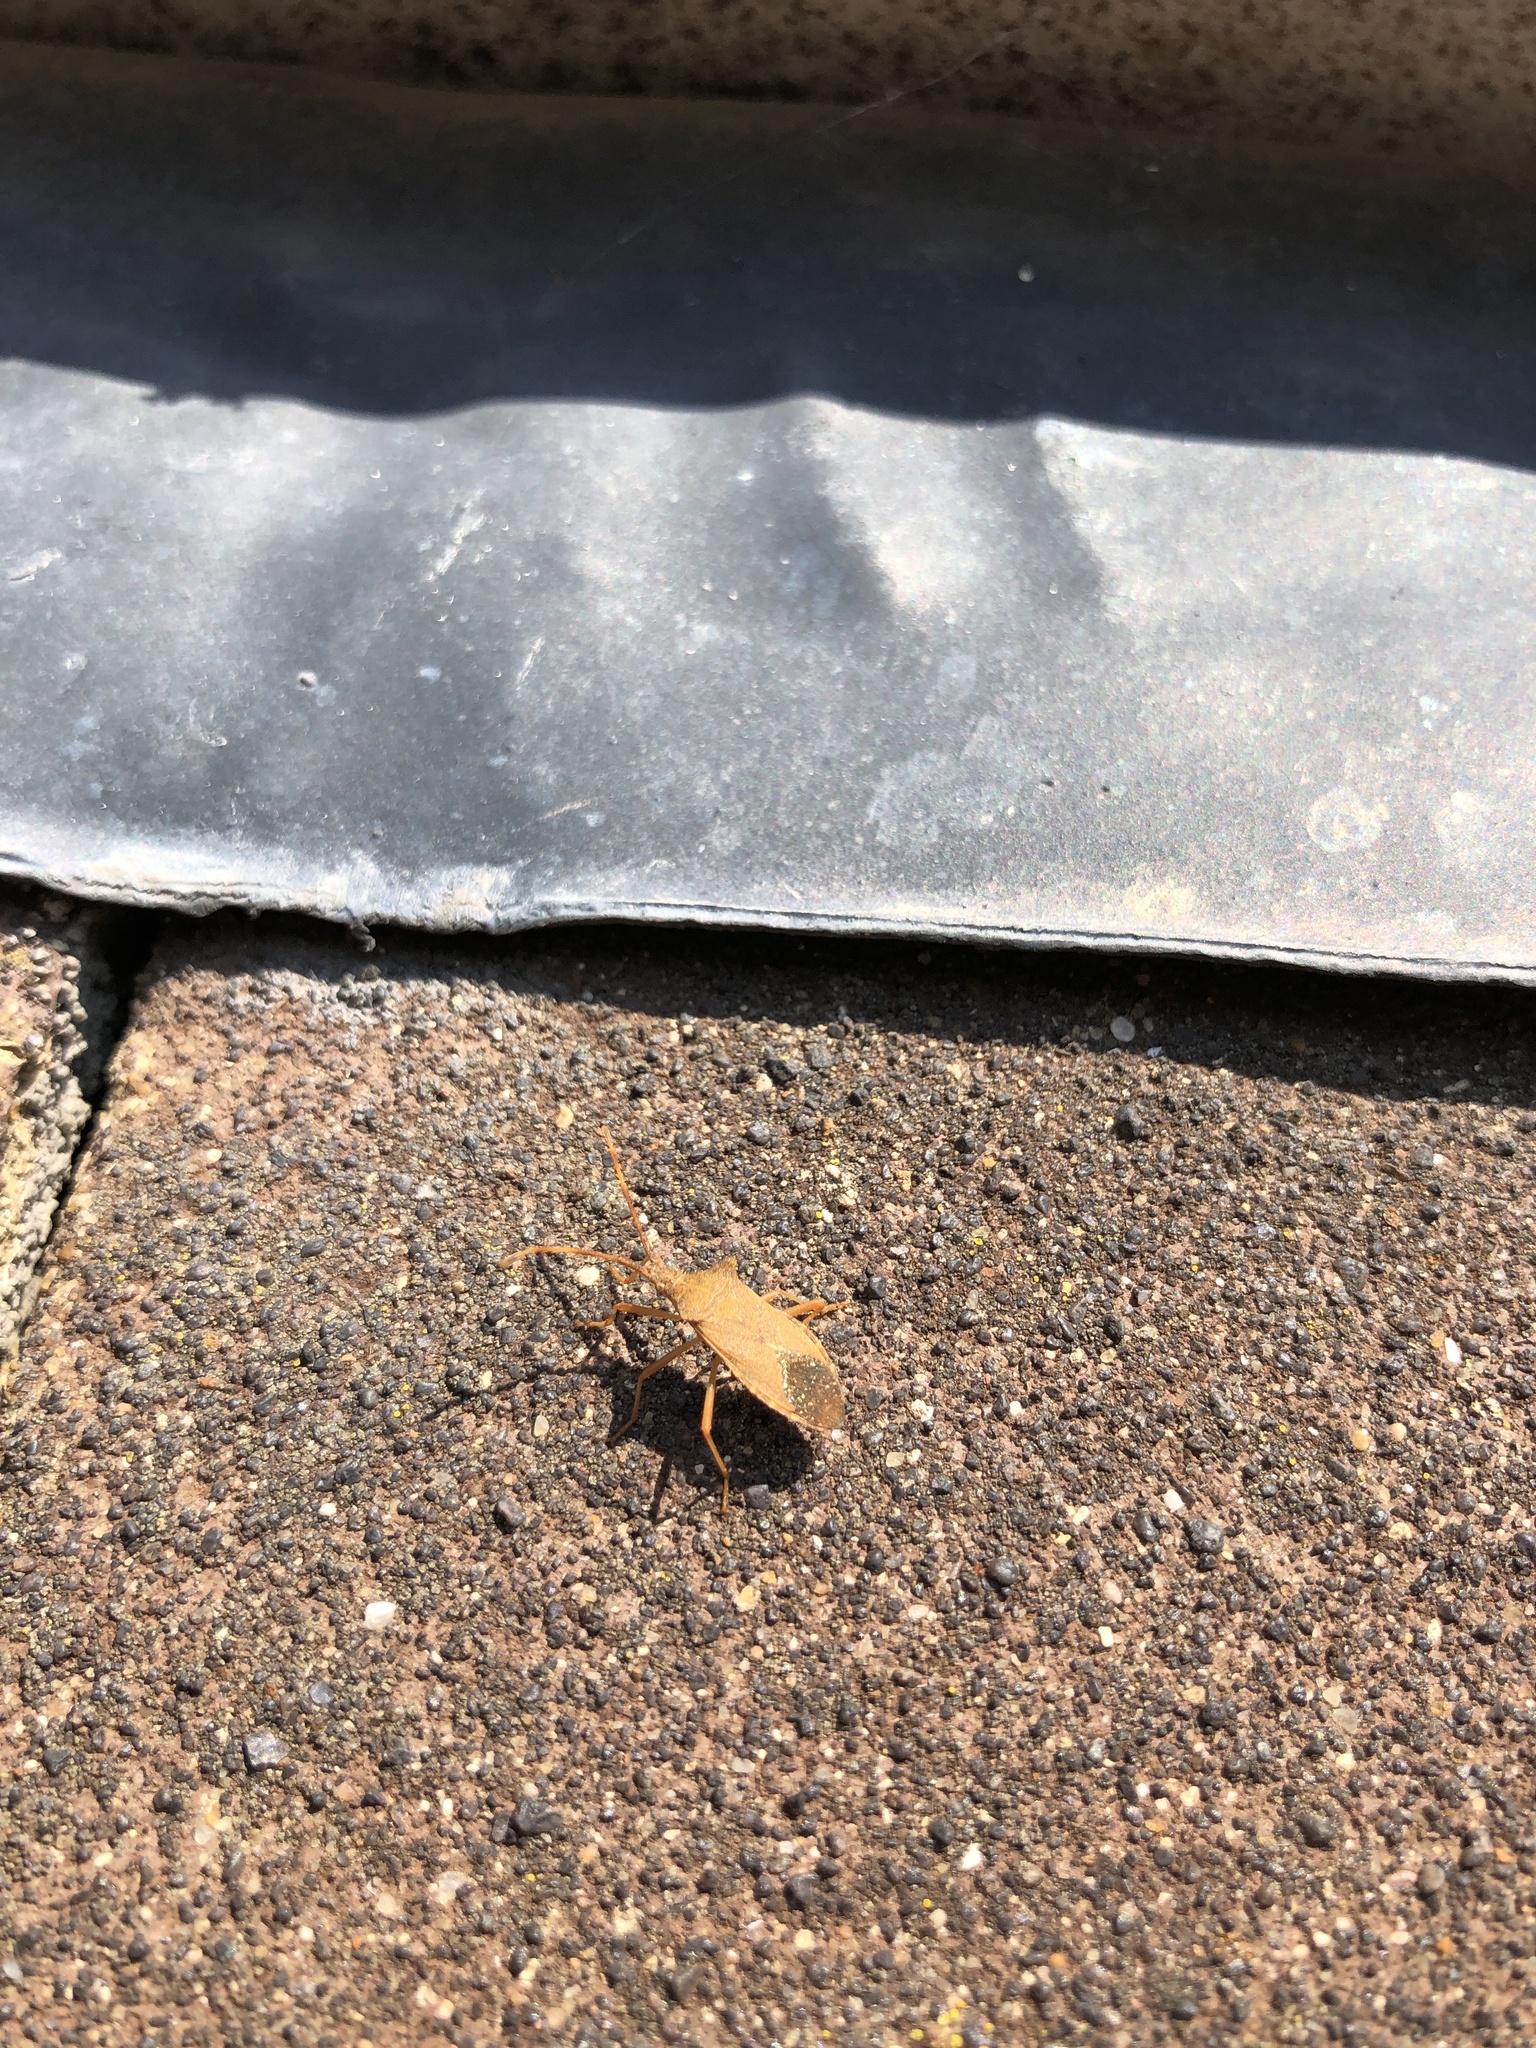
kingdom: Animalia
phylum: Arthropoda
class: Insecta
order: Hemiptera
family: Coreidae
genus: Gonocerus
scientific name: Gonocerus acuteangulatus
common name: Box bug
